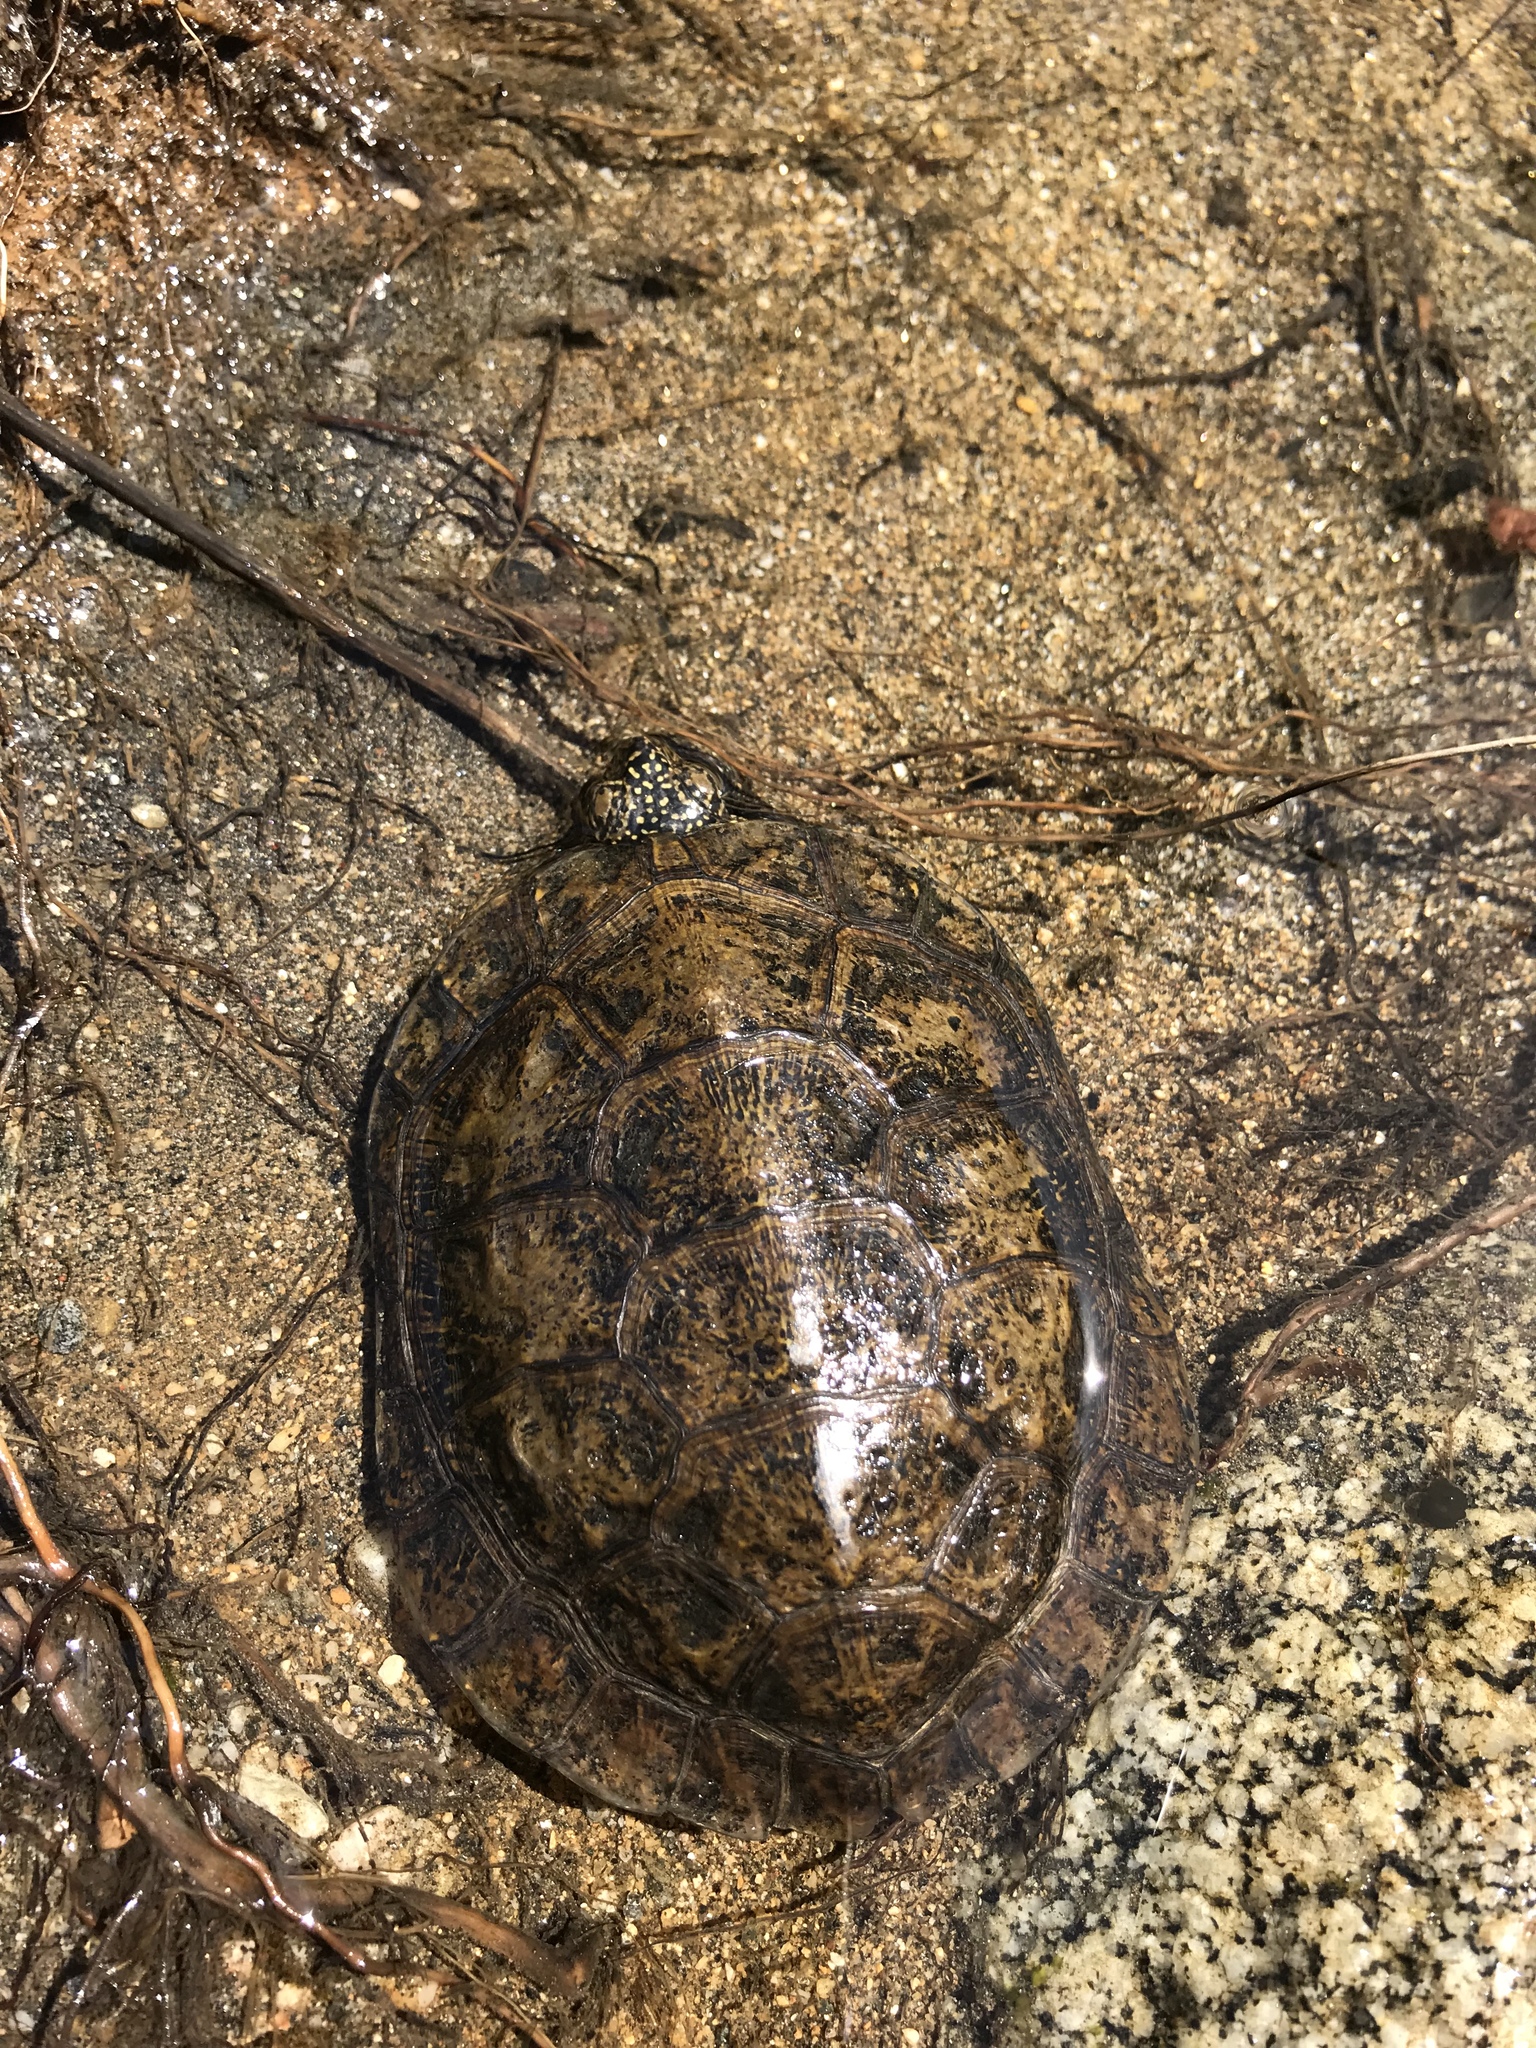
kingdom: Animalia
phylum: Chordata
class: Testudines
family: Emydidae
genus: Actinemys
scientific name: Actinemys marmorata
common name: Western pond turtle
